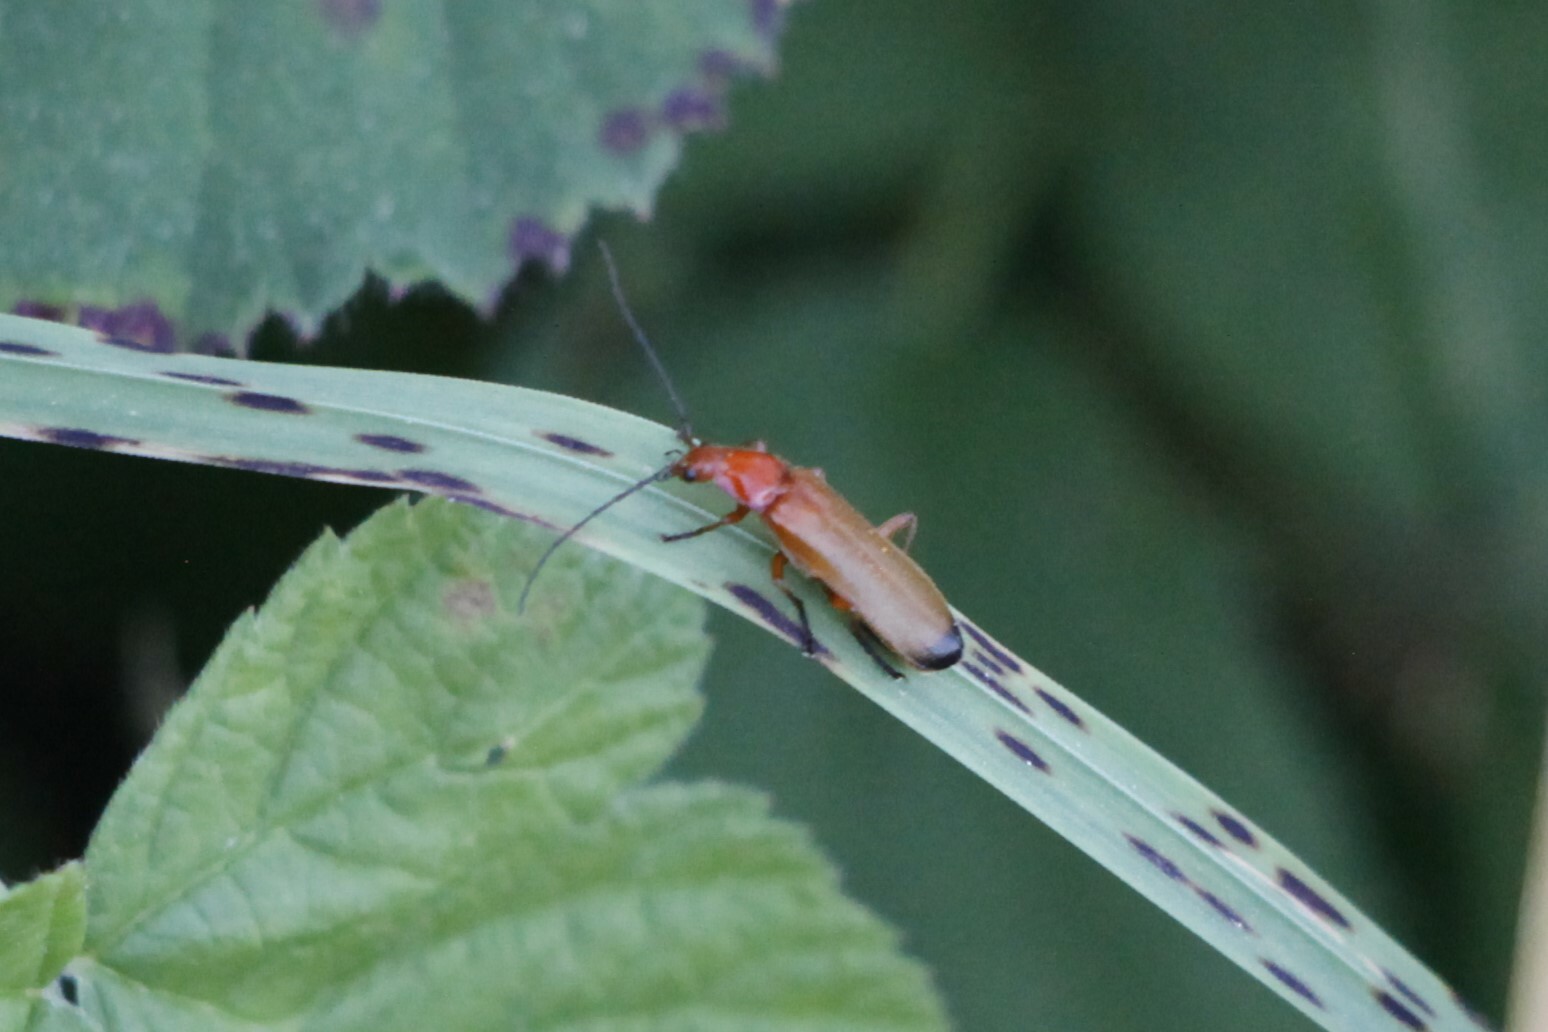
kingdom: Animalia
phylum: Arthropoda
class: Insecta
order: Coleoptera
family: Cantharidae
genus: Rhagonycha
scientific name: Rhagonycha fulva
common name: Common red soldier beetle
